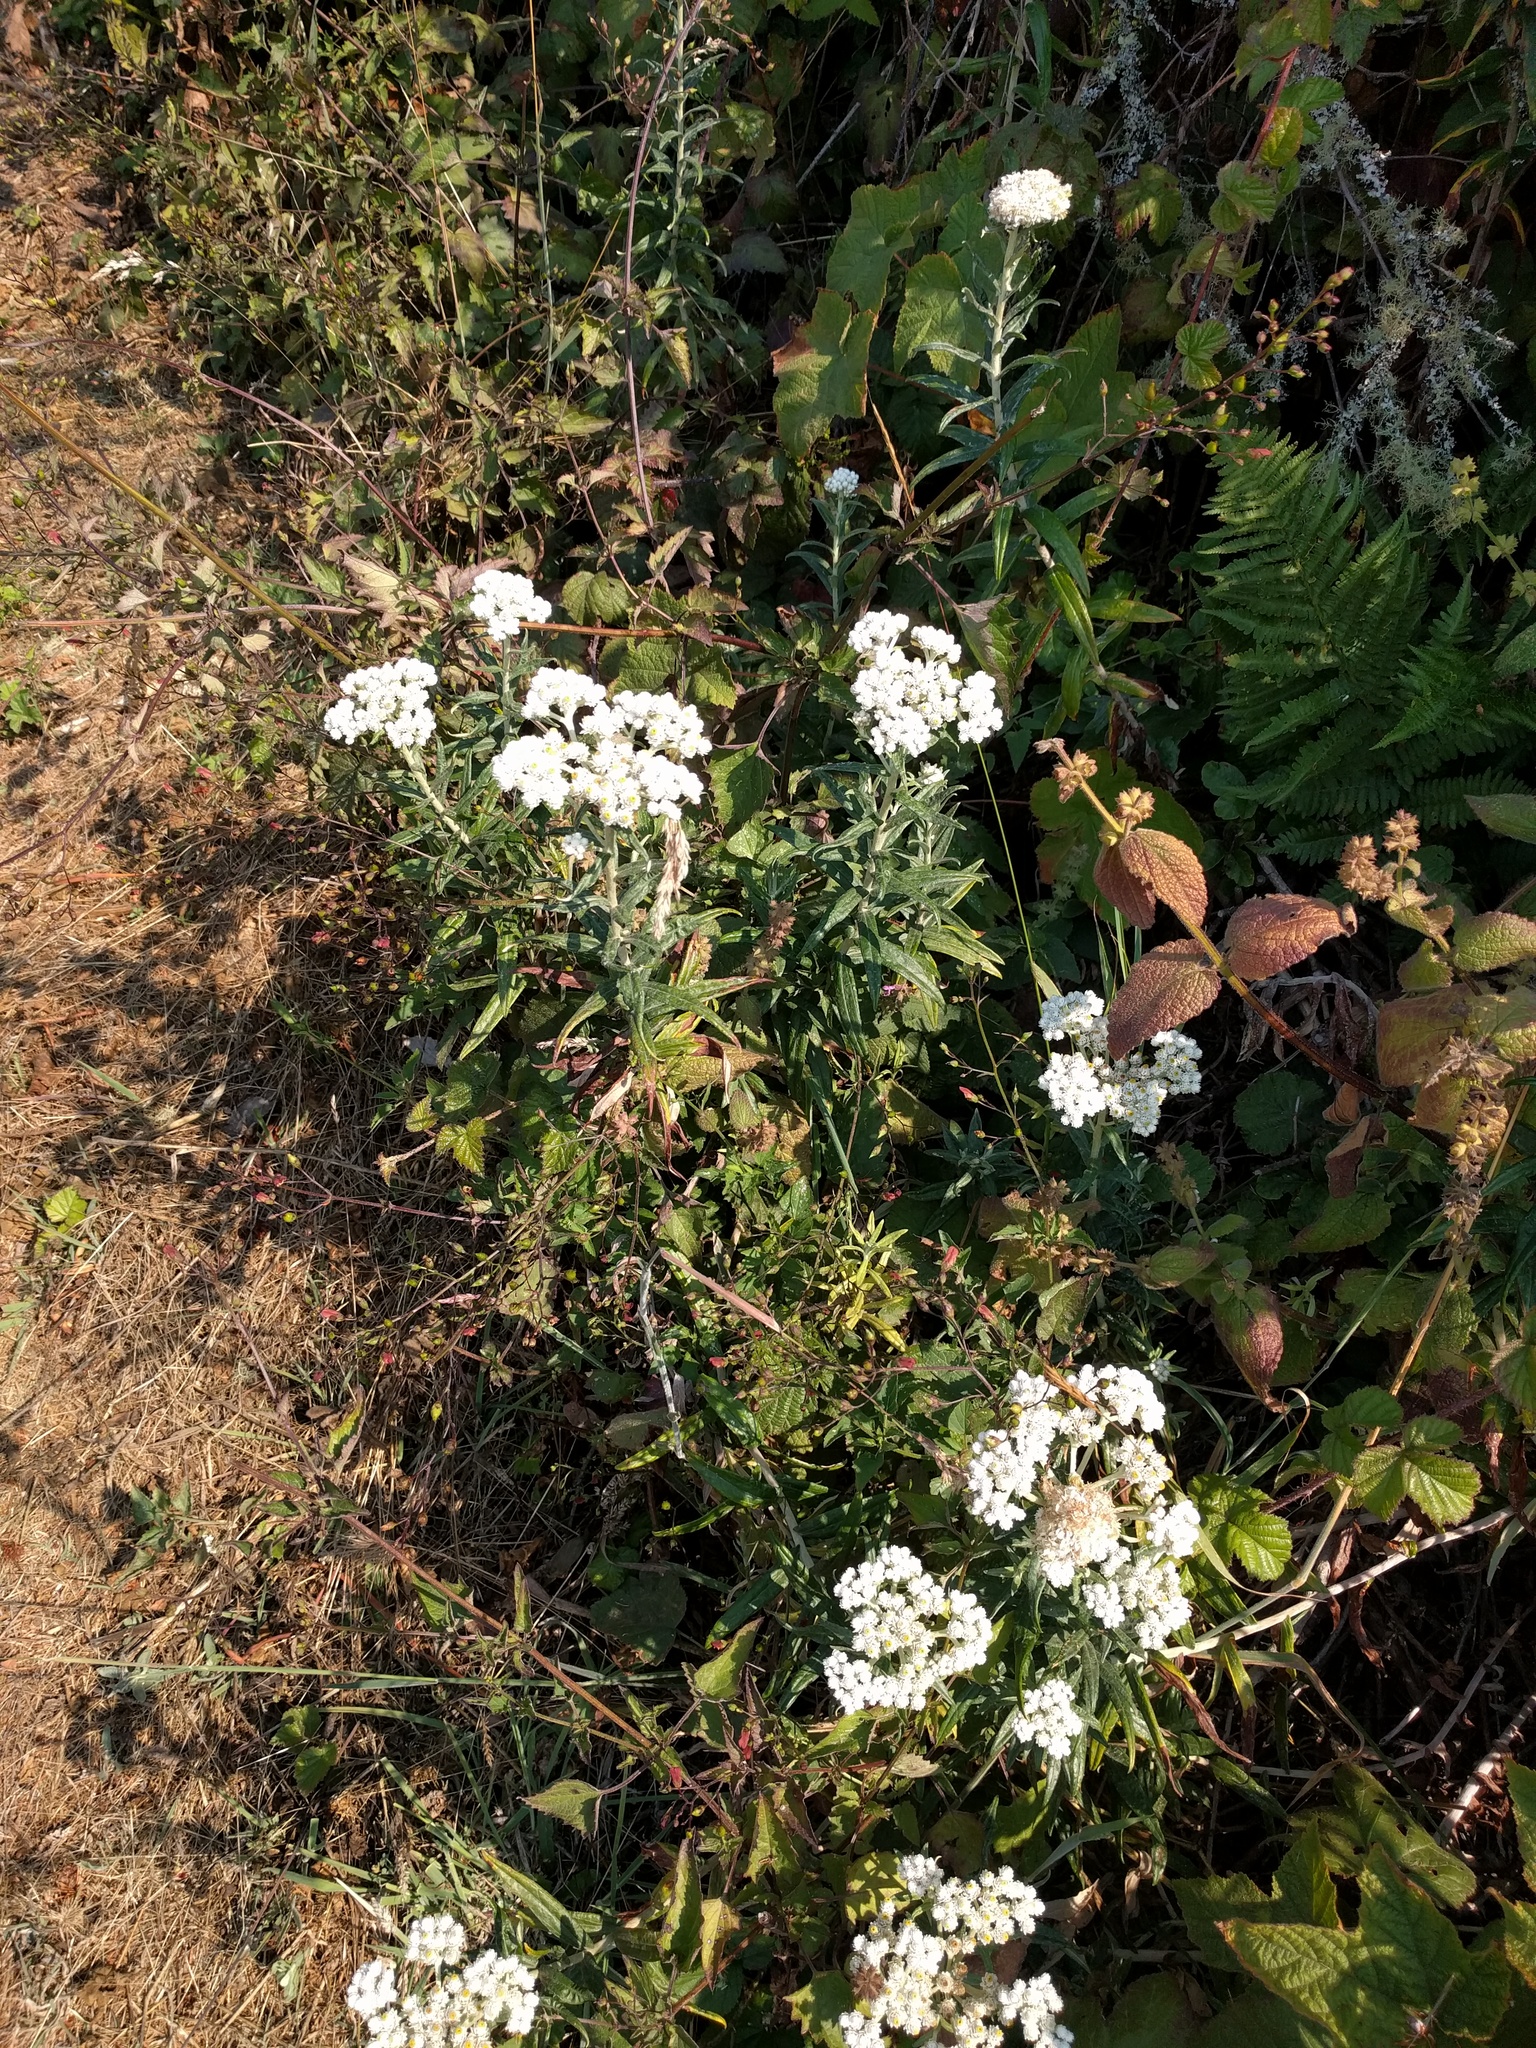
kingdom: Plantae
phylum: Tracheophyta
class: Magnoliopsida
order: Asterales
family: Asteraceae
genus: Anaphalis
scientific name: Anaphalis margaritacea
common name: Pearly everlasting
